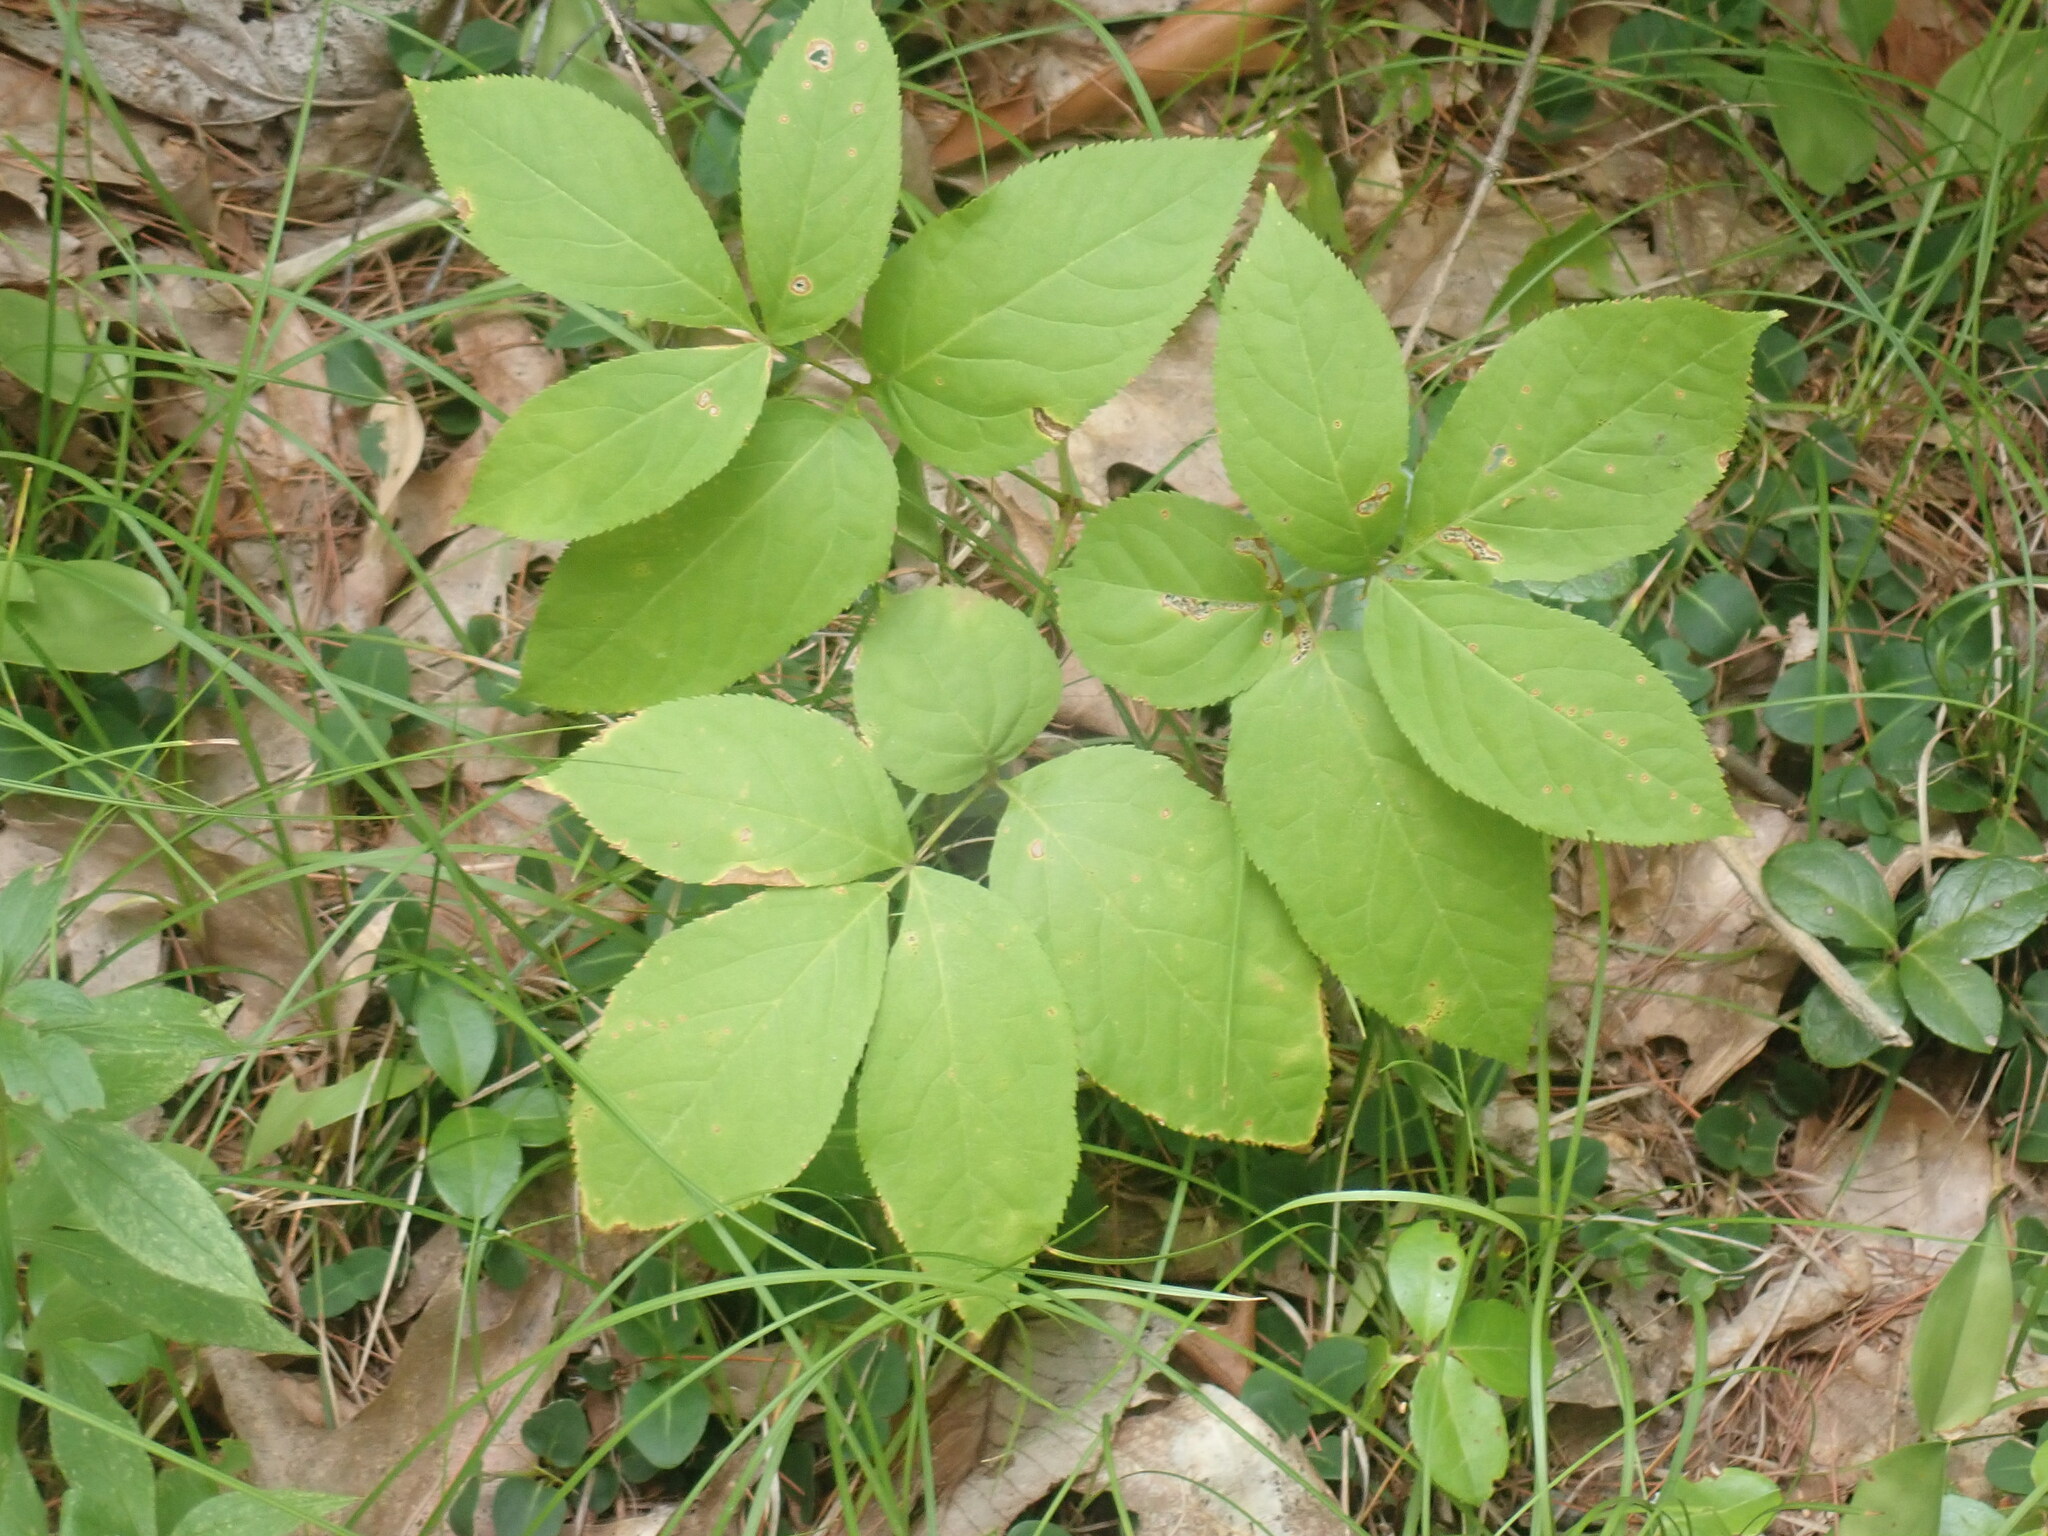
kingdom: Plantae
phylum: Tracheophyta
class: Magnoliopsida
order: Apiales
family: Araliaceae
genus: Aralia
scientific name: Aralia nudicaulis
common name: Wild sarsaparilla
